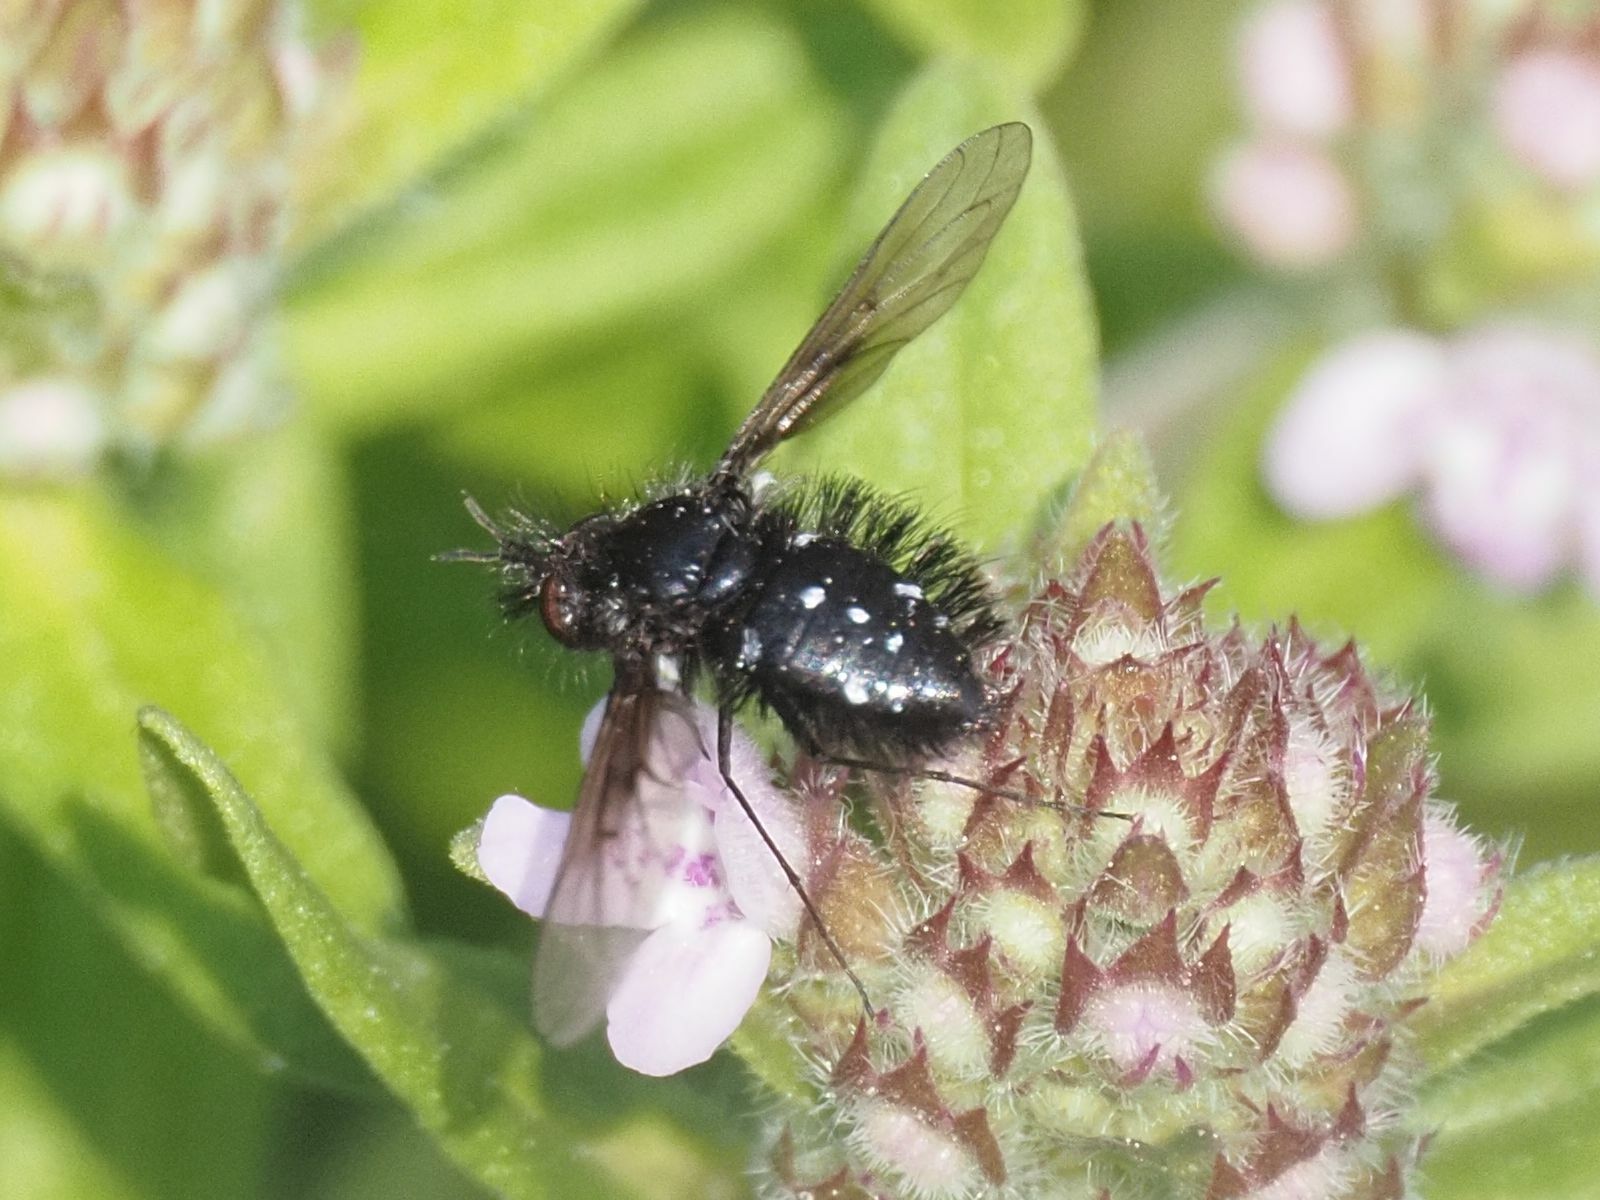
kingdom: Animalia
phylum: Arthropoda
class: Insecta
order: Diptera
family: Bombyliidae
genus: Bombylella
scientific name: Bombylella atra
